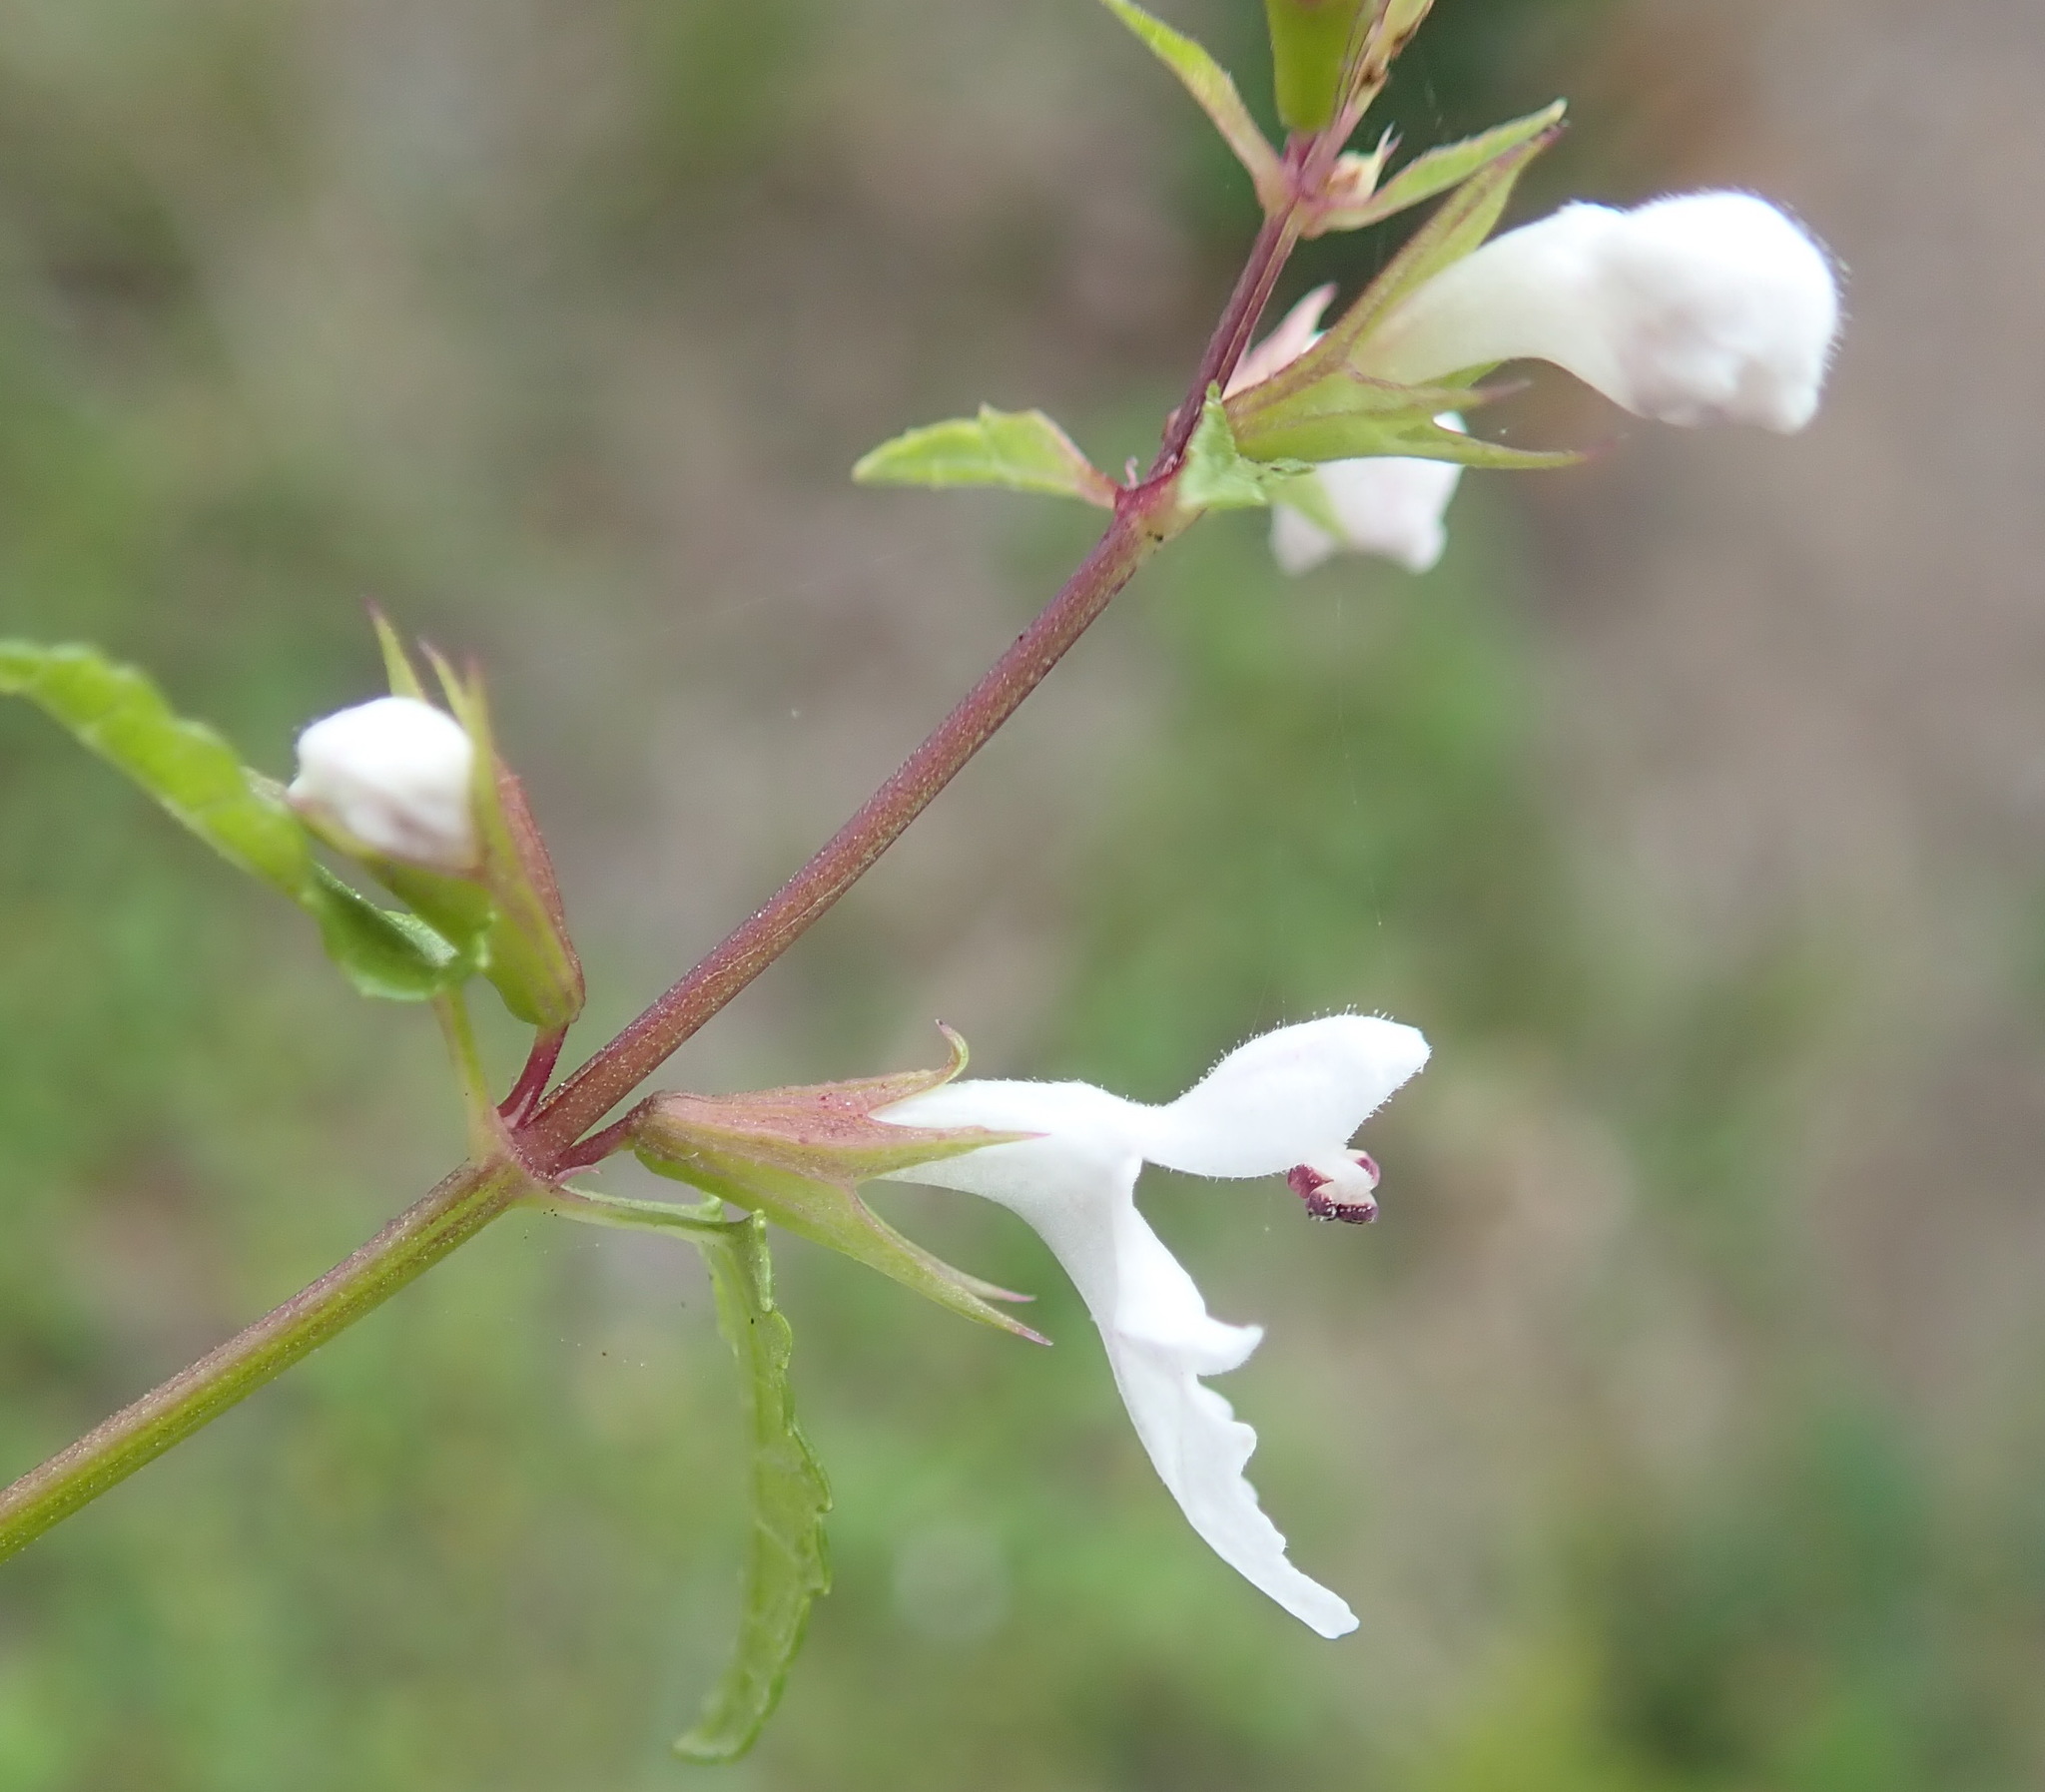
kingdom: Plantae
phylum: Tracheophyta
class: Magnoliopsida
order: Lamiales
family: Lamiaceae
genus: Stachys
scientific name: Stachys aethiopica
